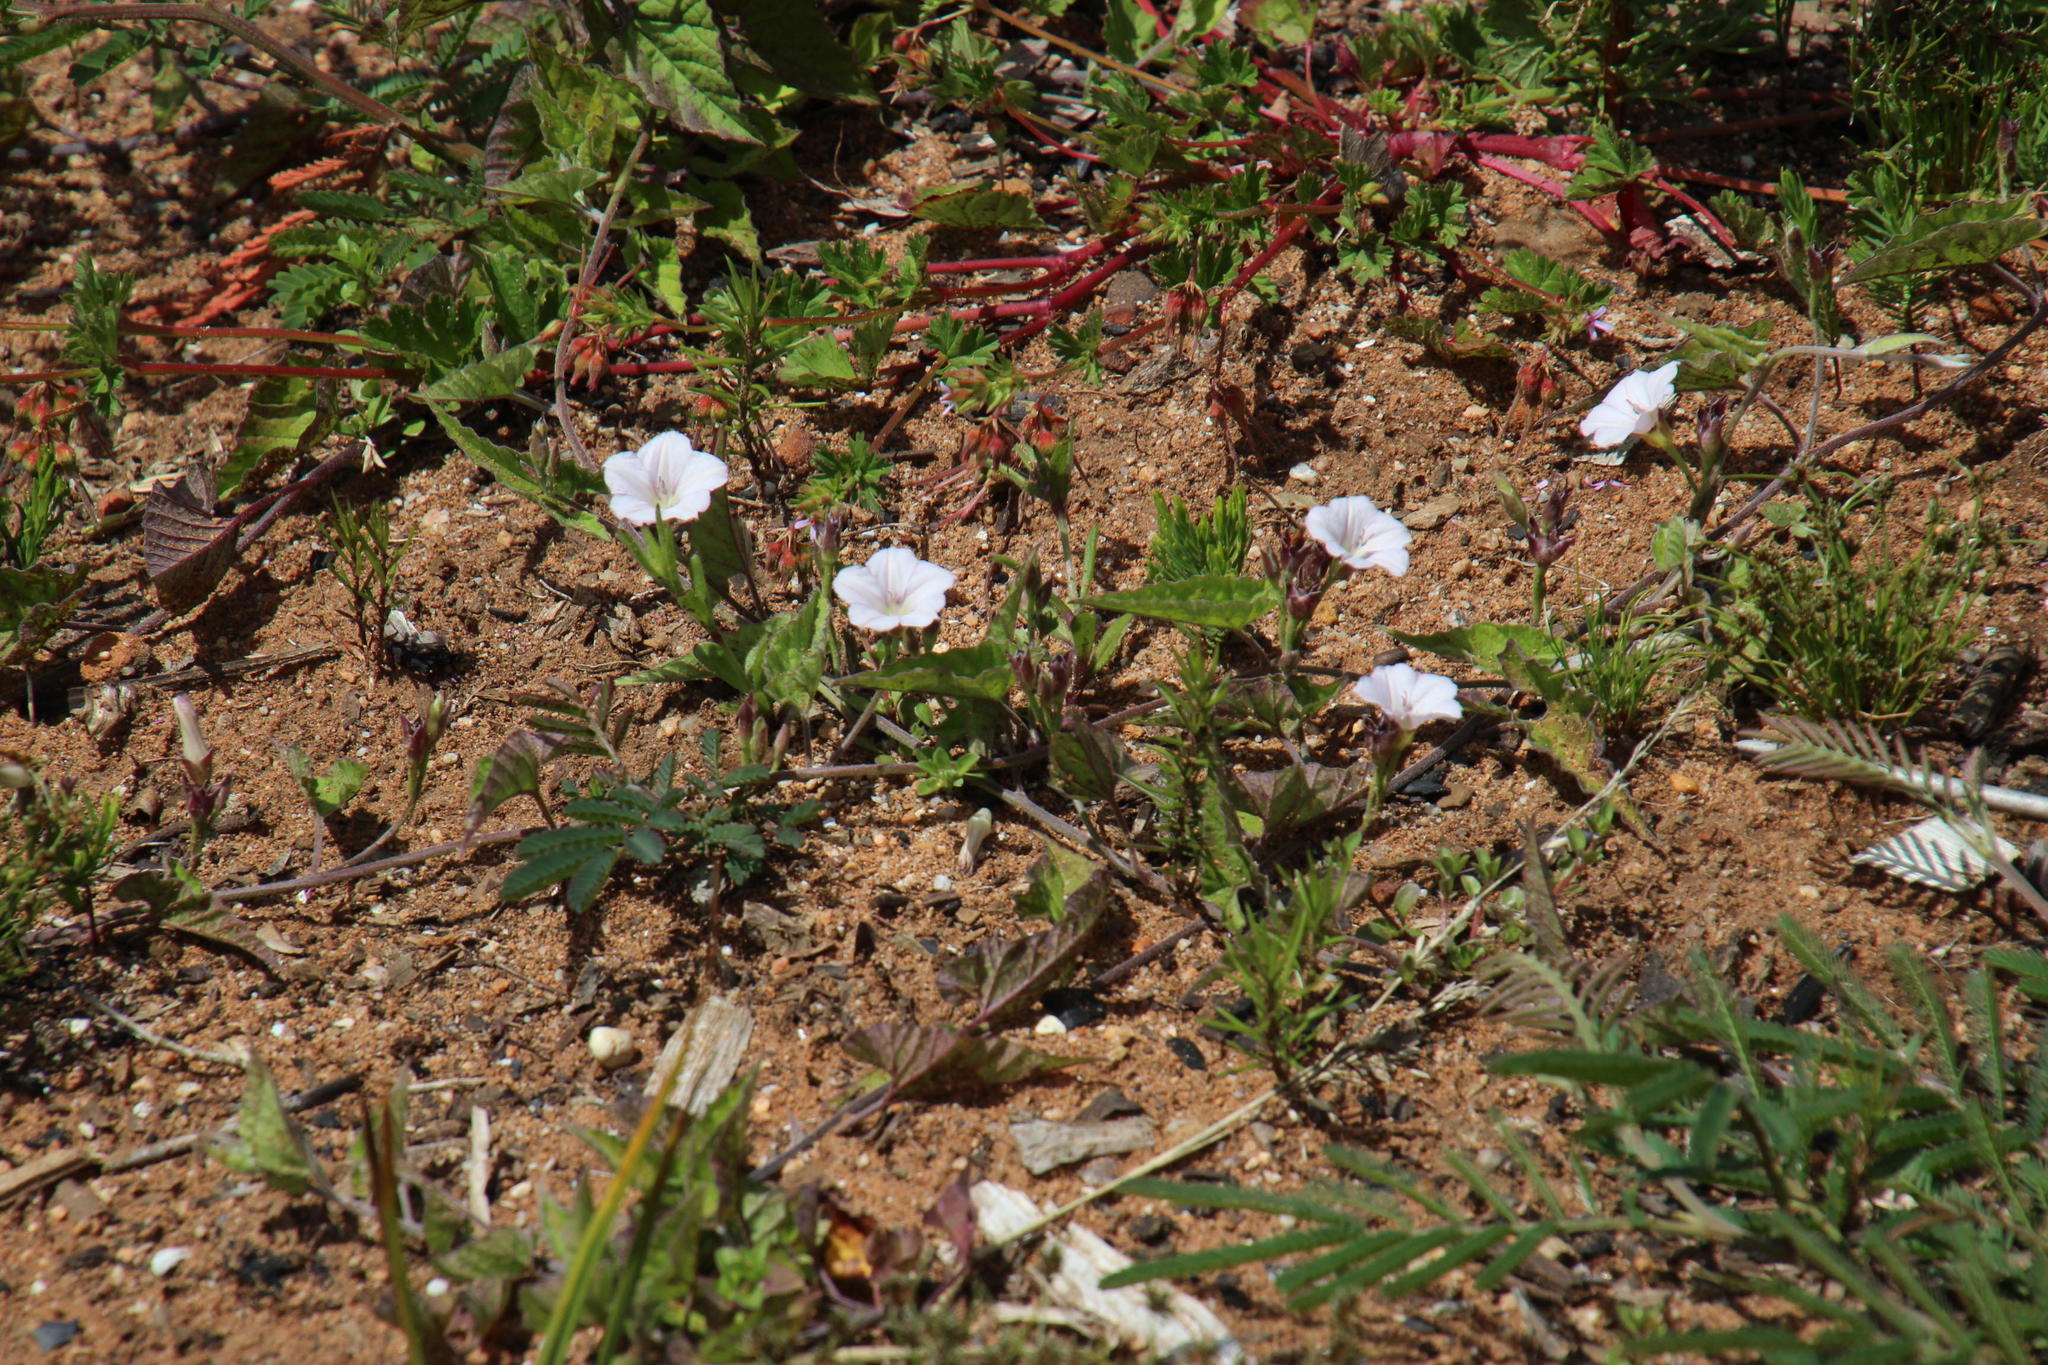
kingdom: Plantae
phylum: Tracheophyta
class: Magnoliopsida
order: Solanales
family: Convolvulaceae
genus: Convolvulus
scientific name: Convolvulus farinosus
